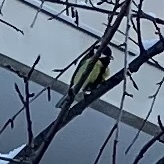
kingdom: Animalia
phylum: Chordata
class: Aves
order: Passeriformes
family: Paridae
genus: Parus
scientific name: Parus major
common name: Great tit
